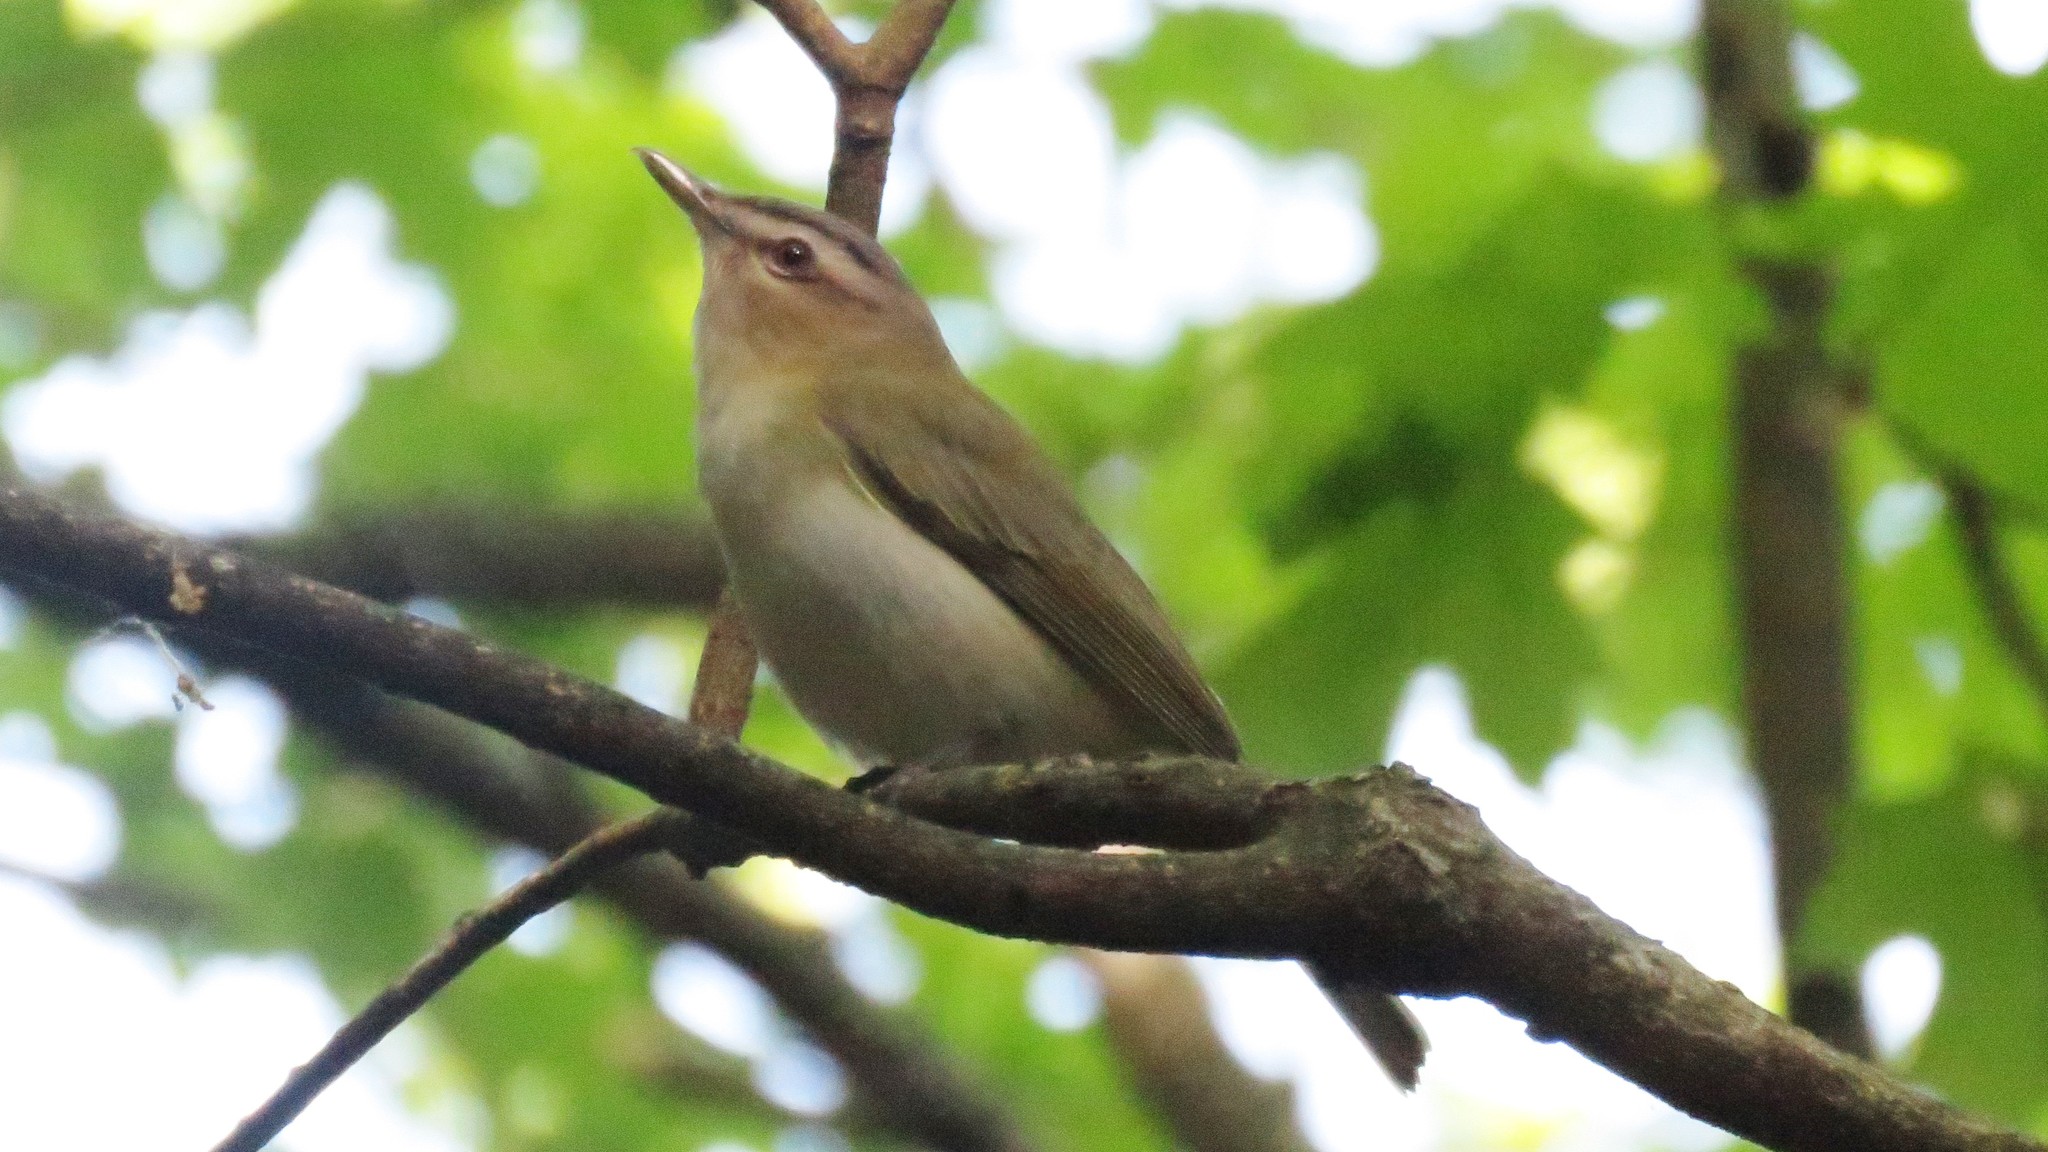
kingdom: Animalia
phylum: Chordata
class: Aves
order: Passeriformes
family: Vireonidae
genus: Vireo
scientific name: Vireo olivaceus
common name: Red-eyed vireo
